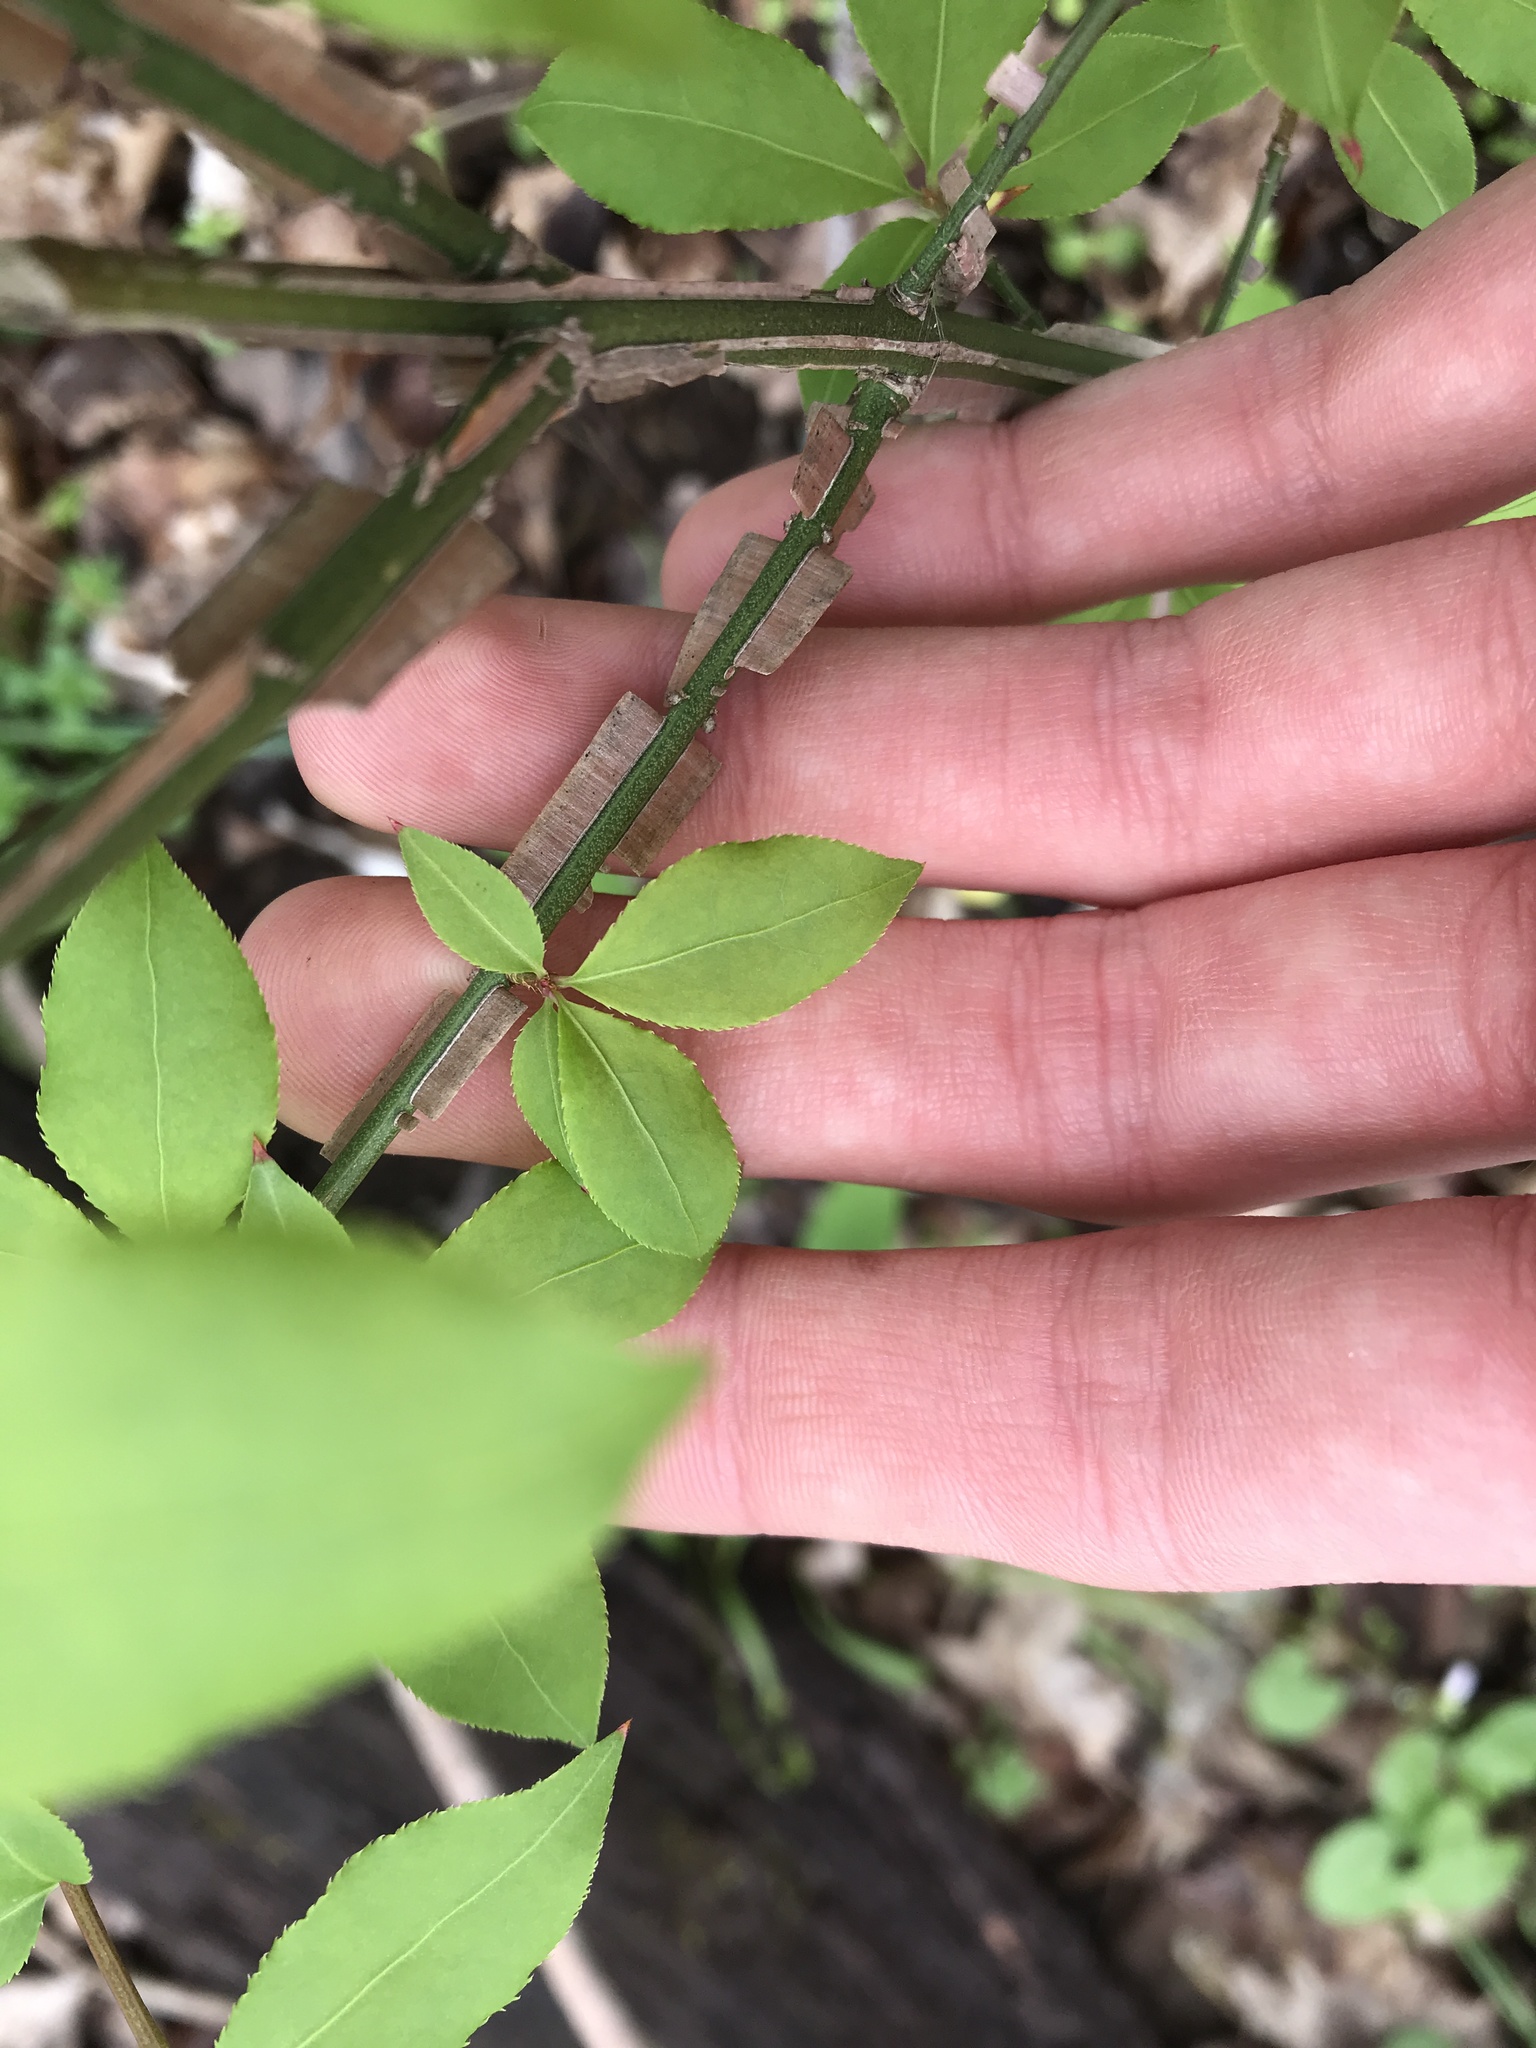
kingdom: Plantae
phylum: Tracheophyta
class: Magnoliopsida
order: Celastrales
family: Celastraceae
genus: Euonymus
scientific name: Euonymus alatus
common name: Winged euonymus
